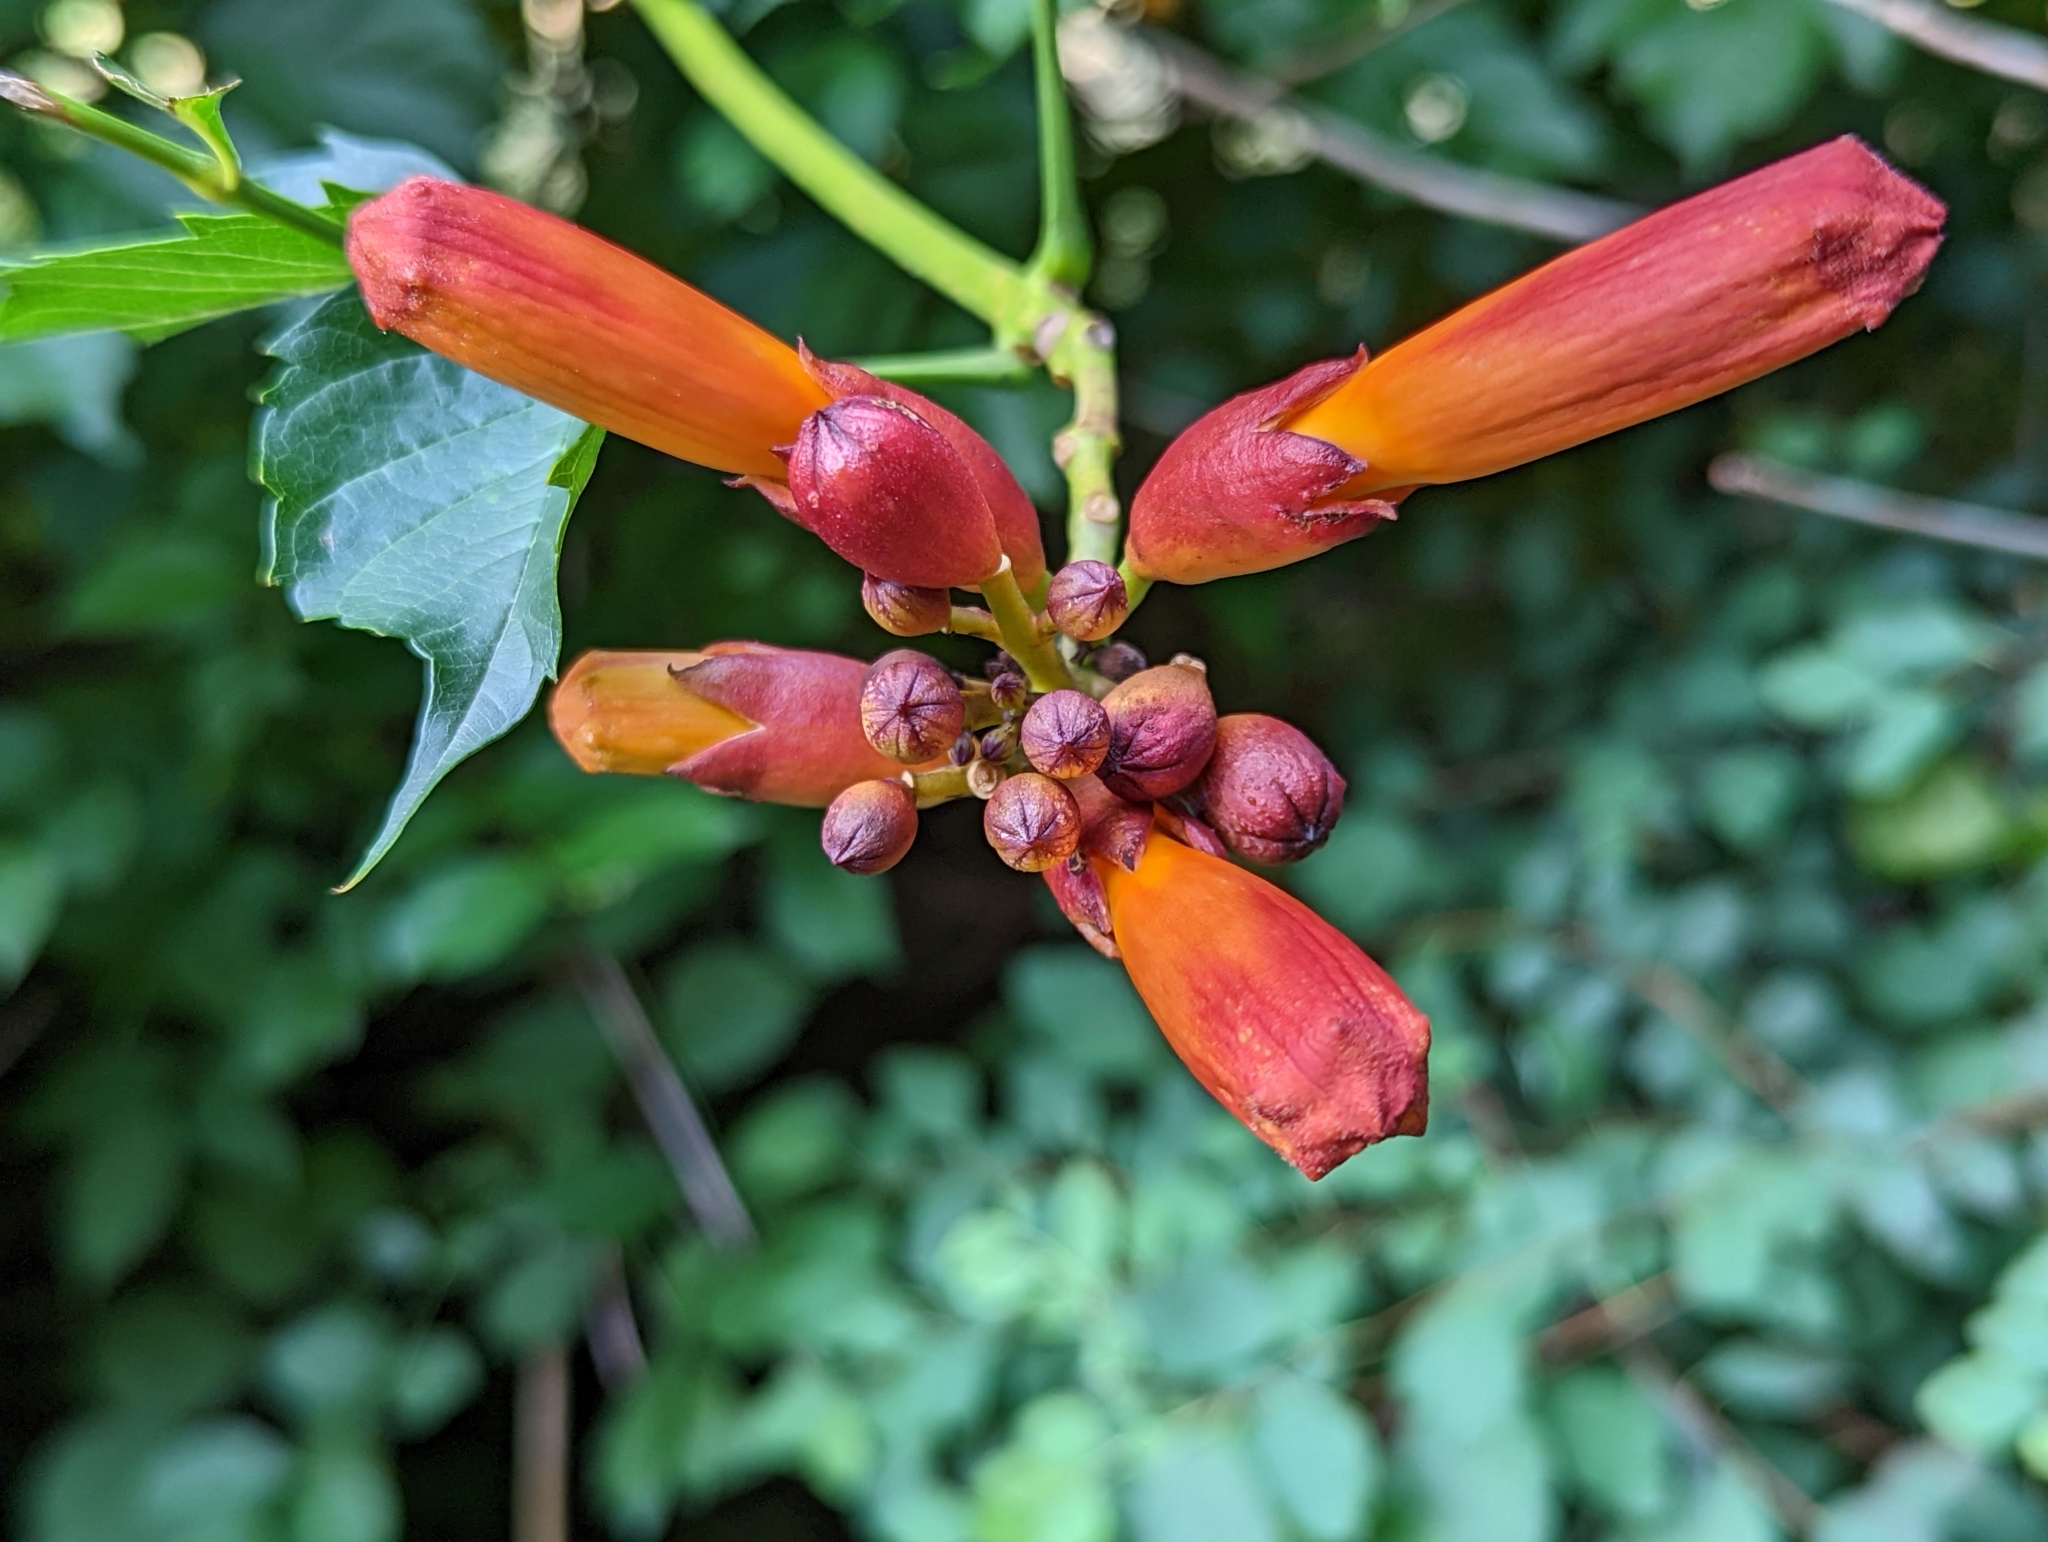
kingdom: Plantae
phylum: Tracheophyta
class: Magnoliopsida
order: Lamiales
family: Bignoniaceae
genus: Campsis
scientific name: Campsis radicans
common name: Trumpet-creeper
